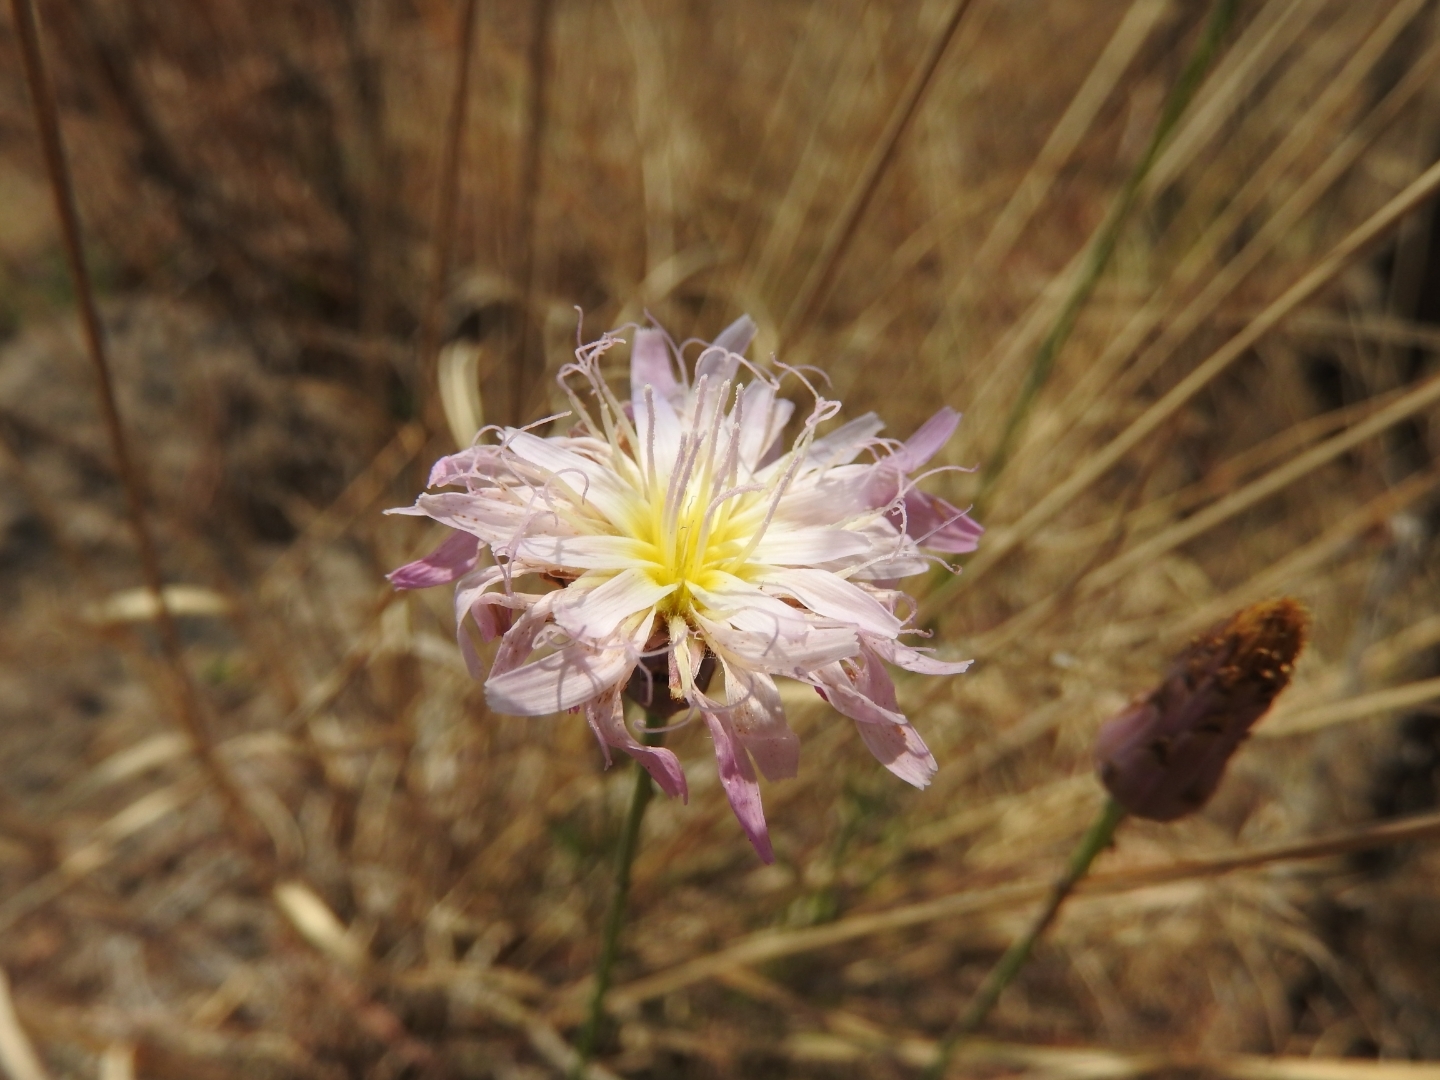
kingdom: Plantae
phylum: Tracheophyta
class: Magnoliopsida
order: Asterales
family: Asteraceae
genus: Pinaropappus
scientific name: Pinaropappus roseus
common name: Rock-lettuce
